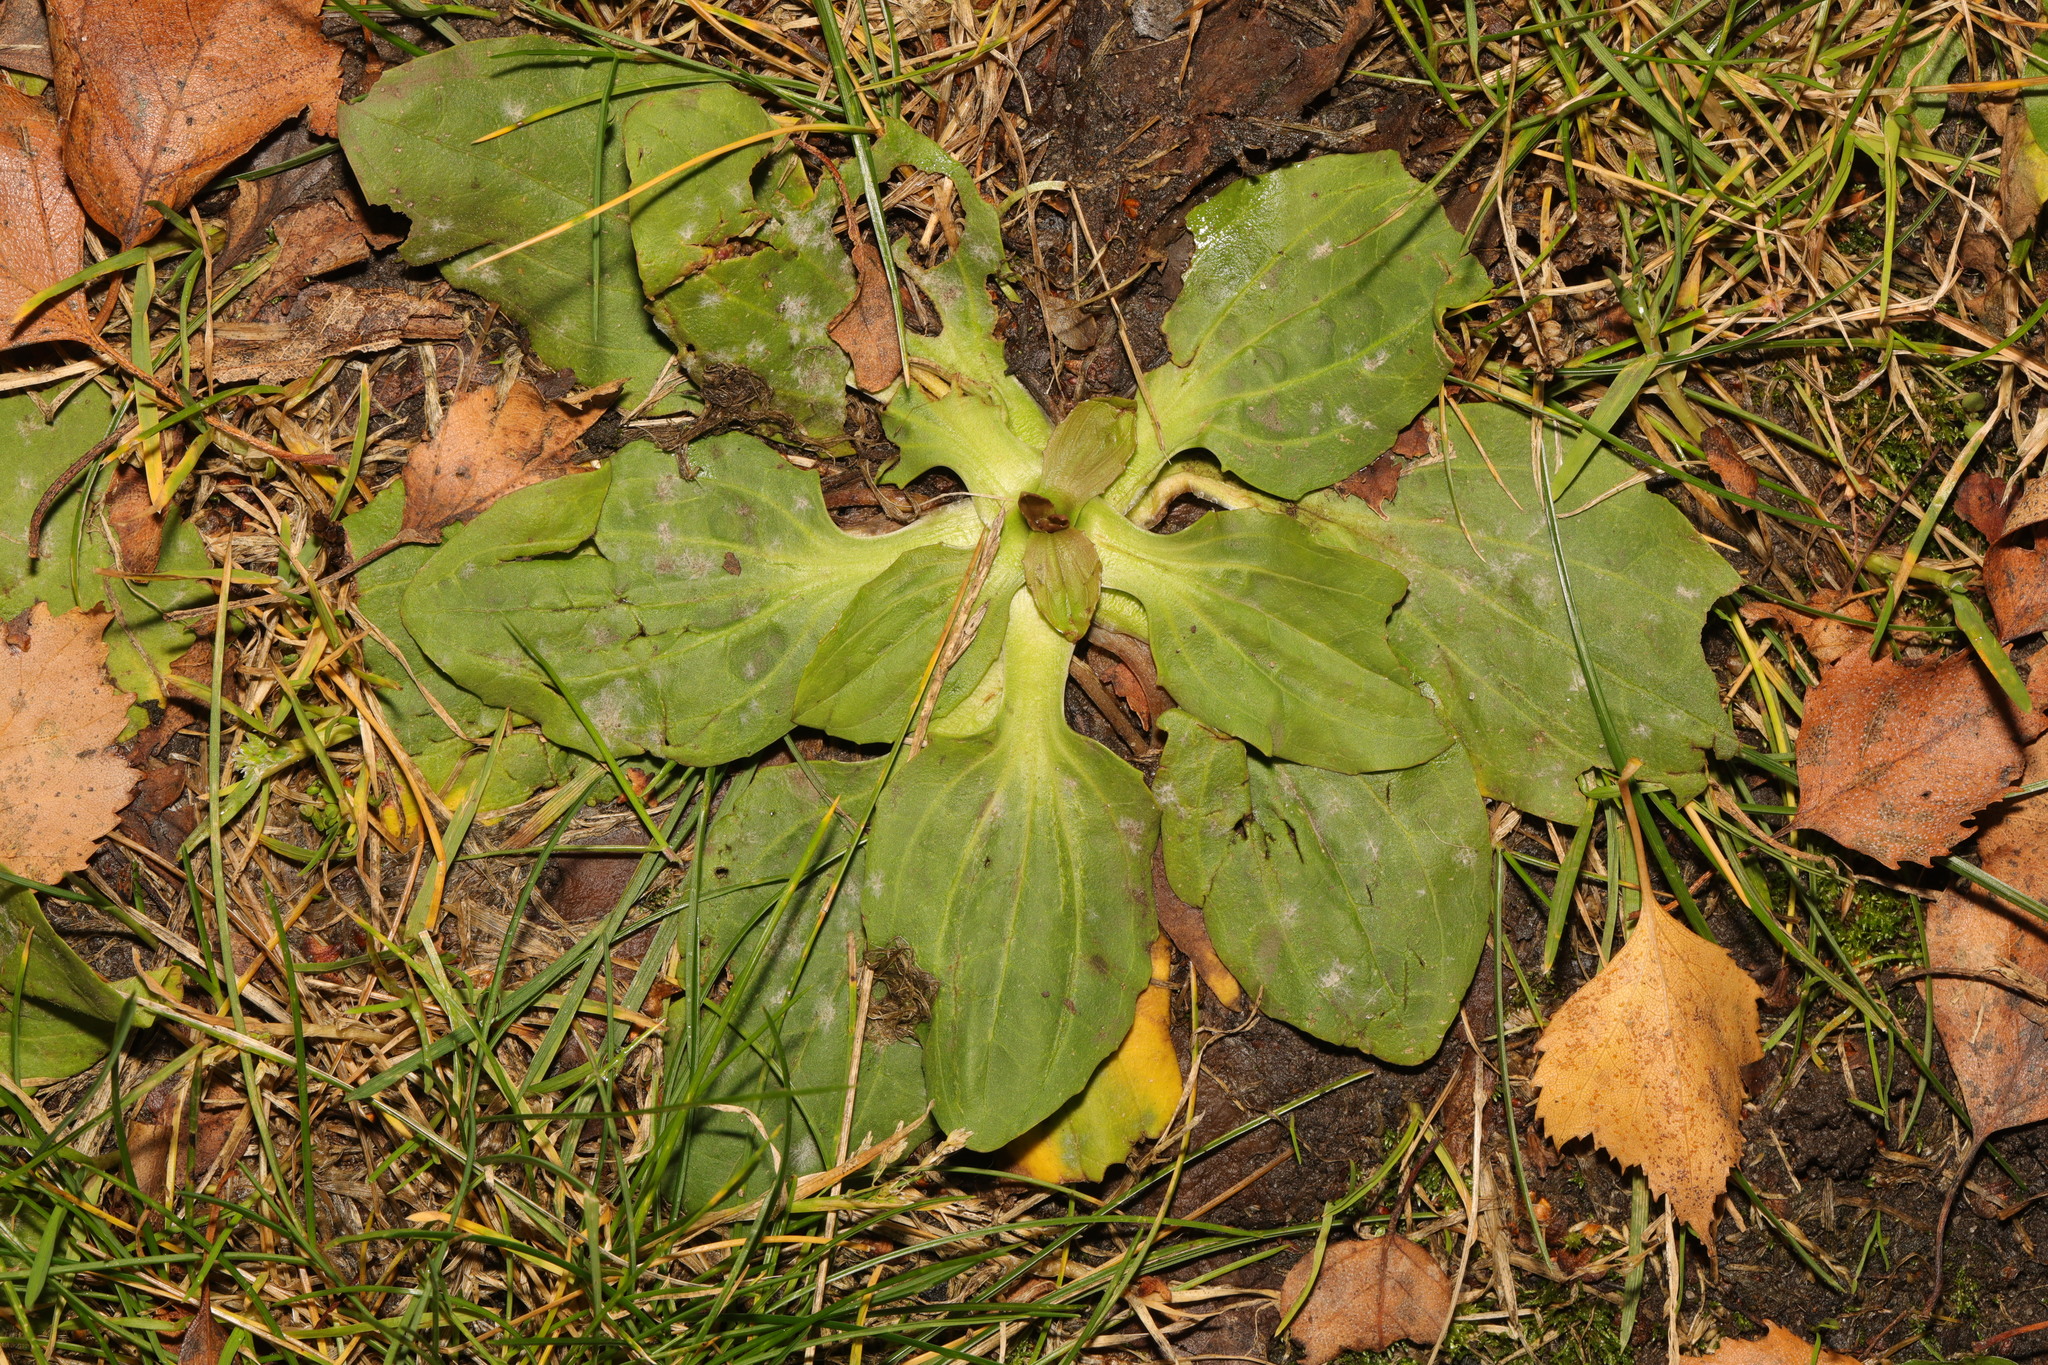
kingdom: Plantae
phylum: Tracheophyta
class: Magnoliopsida
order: Lamiales
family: Plantaginaceae
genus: Plantago
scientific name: Plantago major
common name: Common plantain
